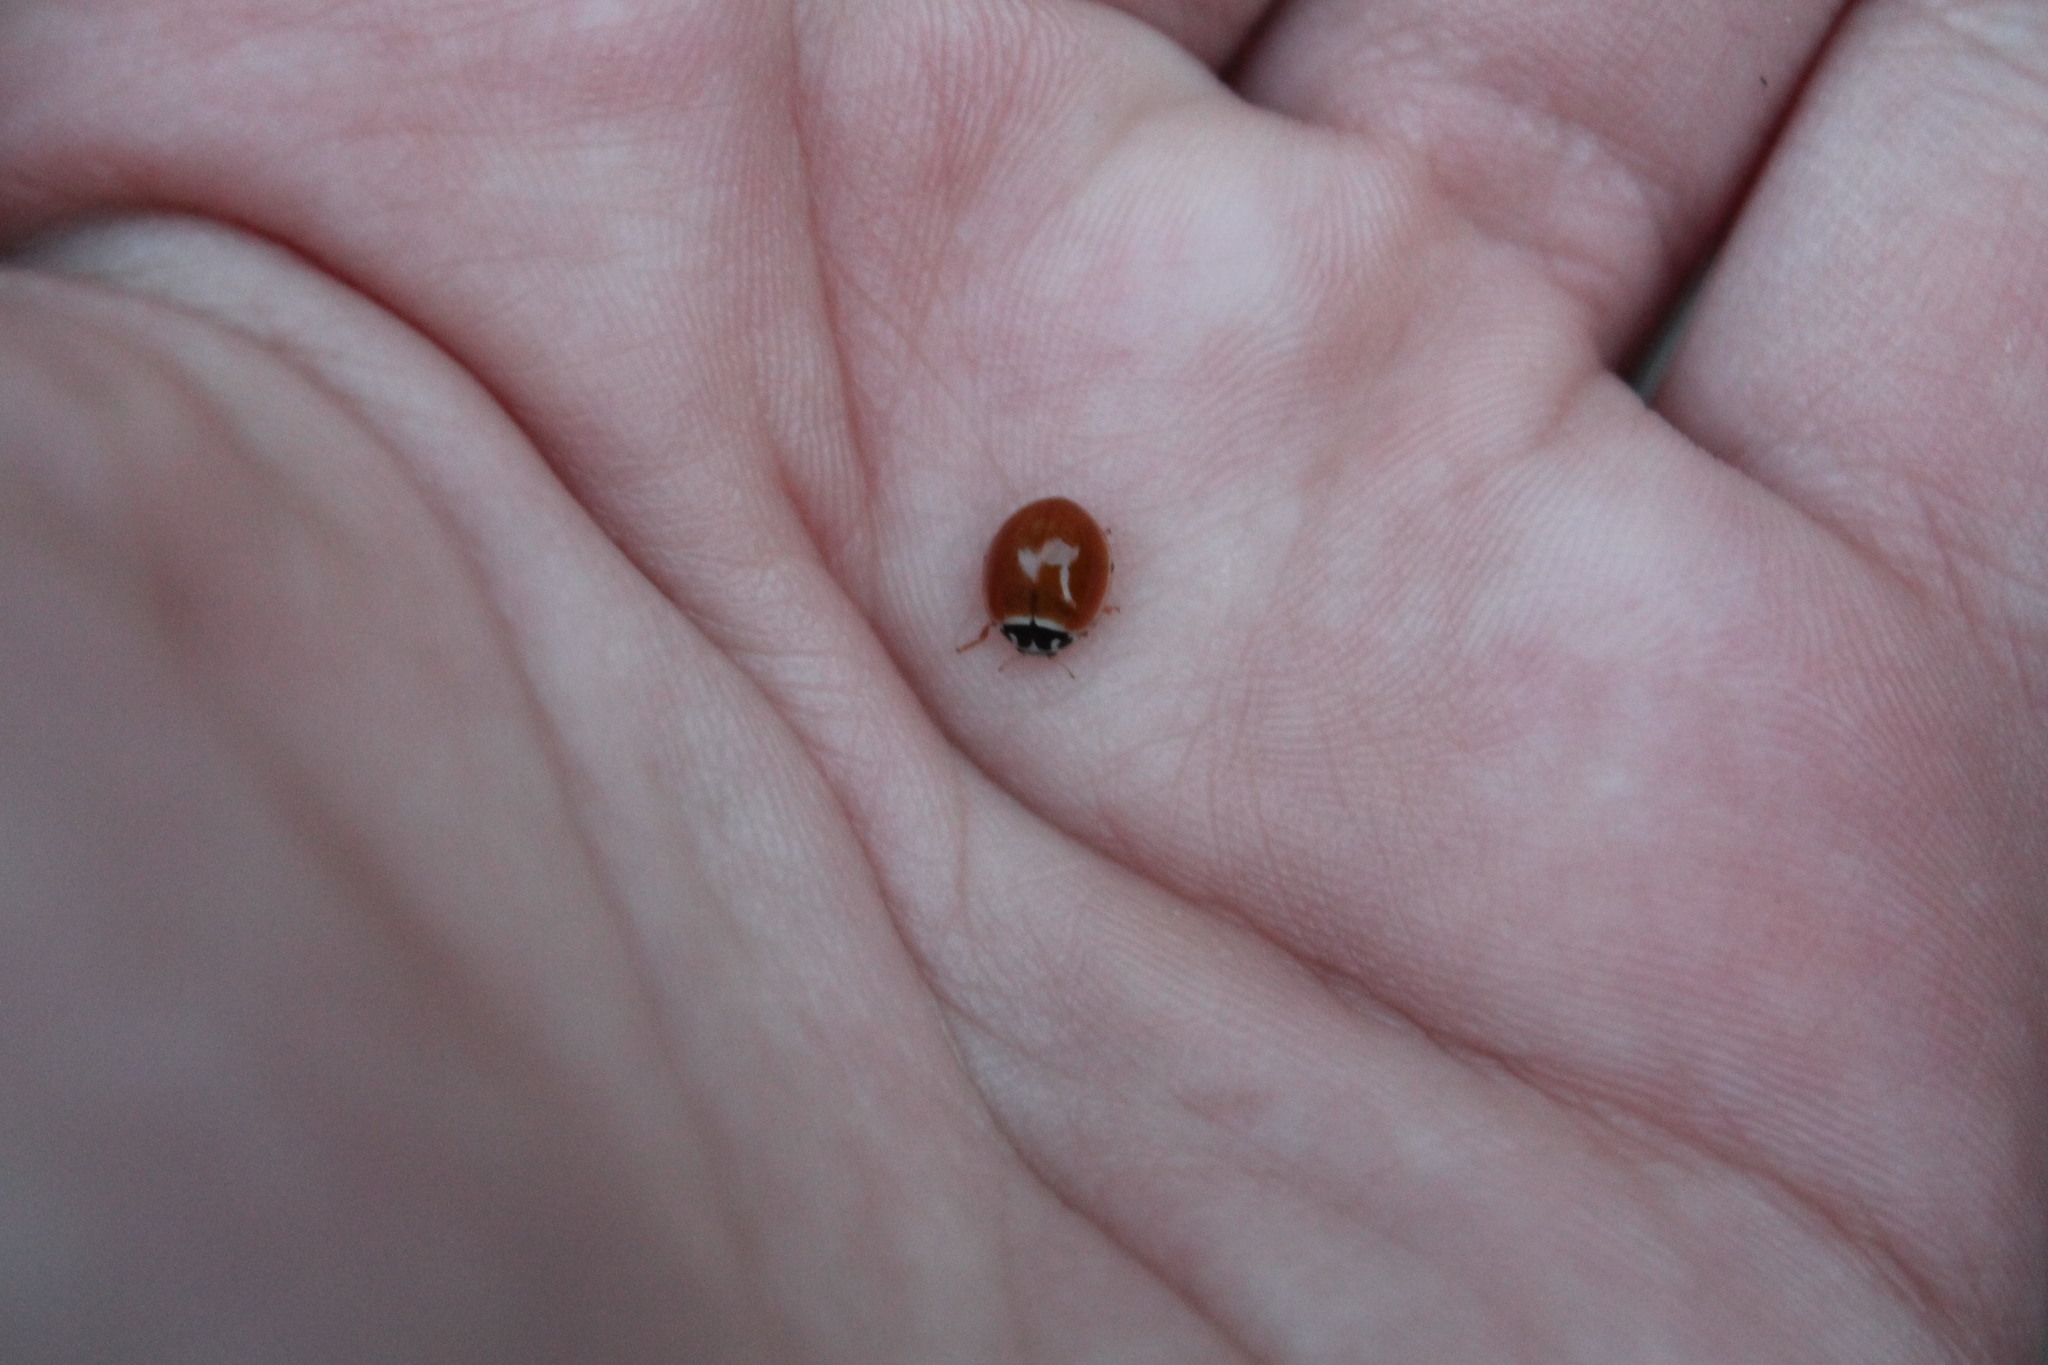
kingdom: Animalia
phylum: Arthropoda
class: Insecta
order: Coleoptera
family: Coccinellidae
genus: Cycloneda
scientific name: Cycloneda munda
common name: Polished lady beetle
